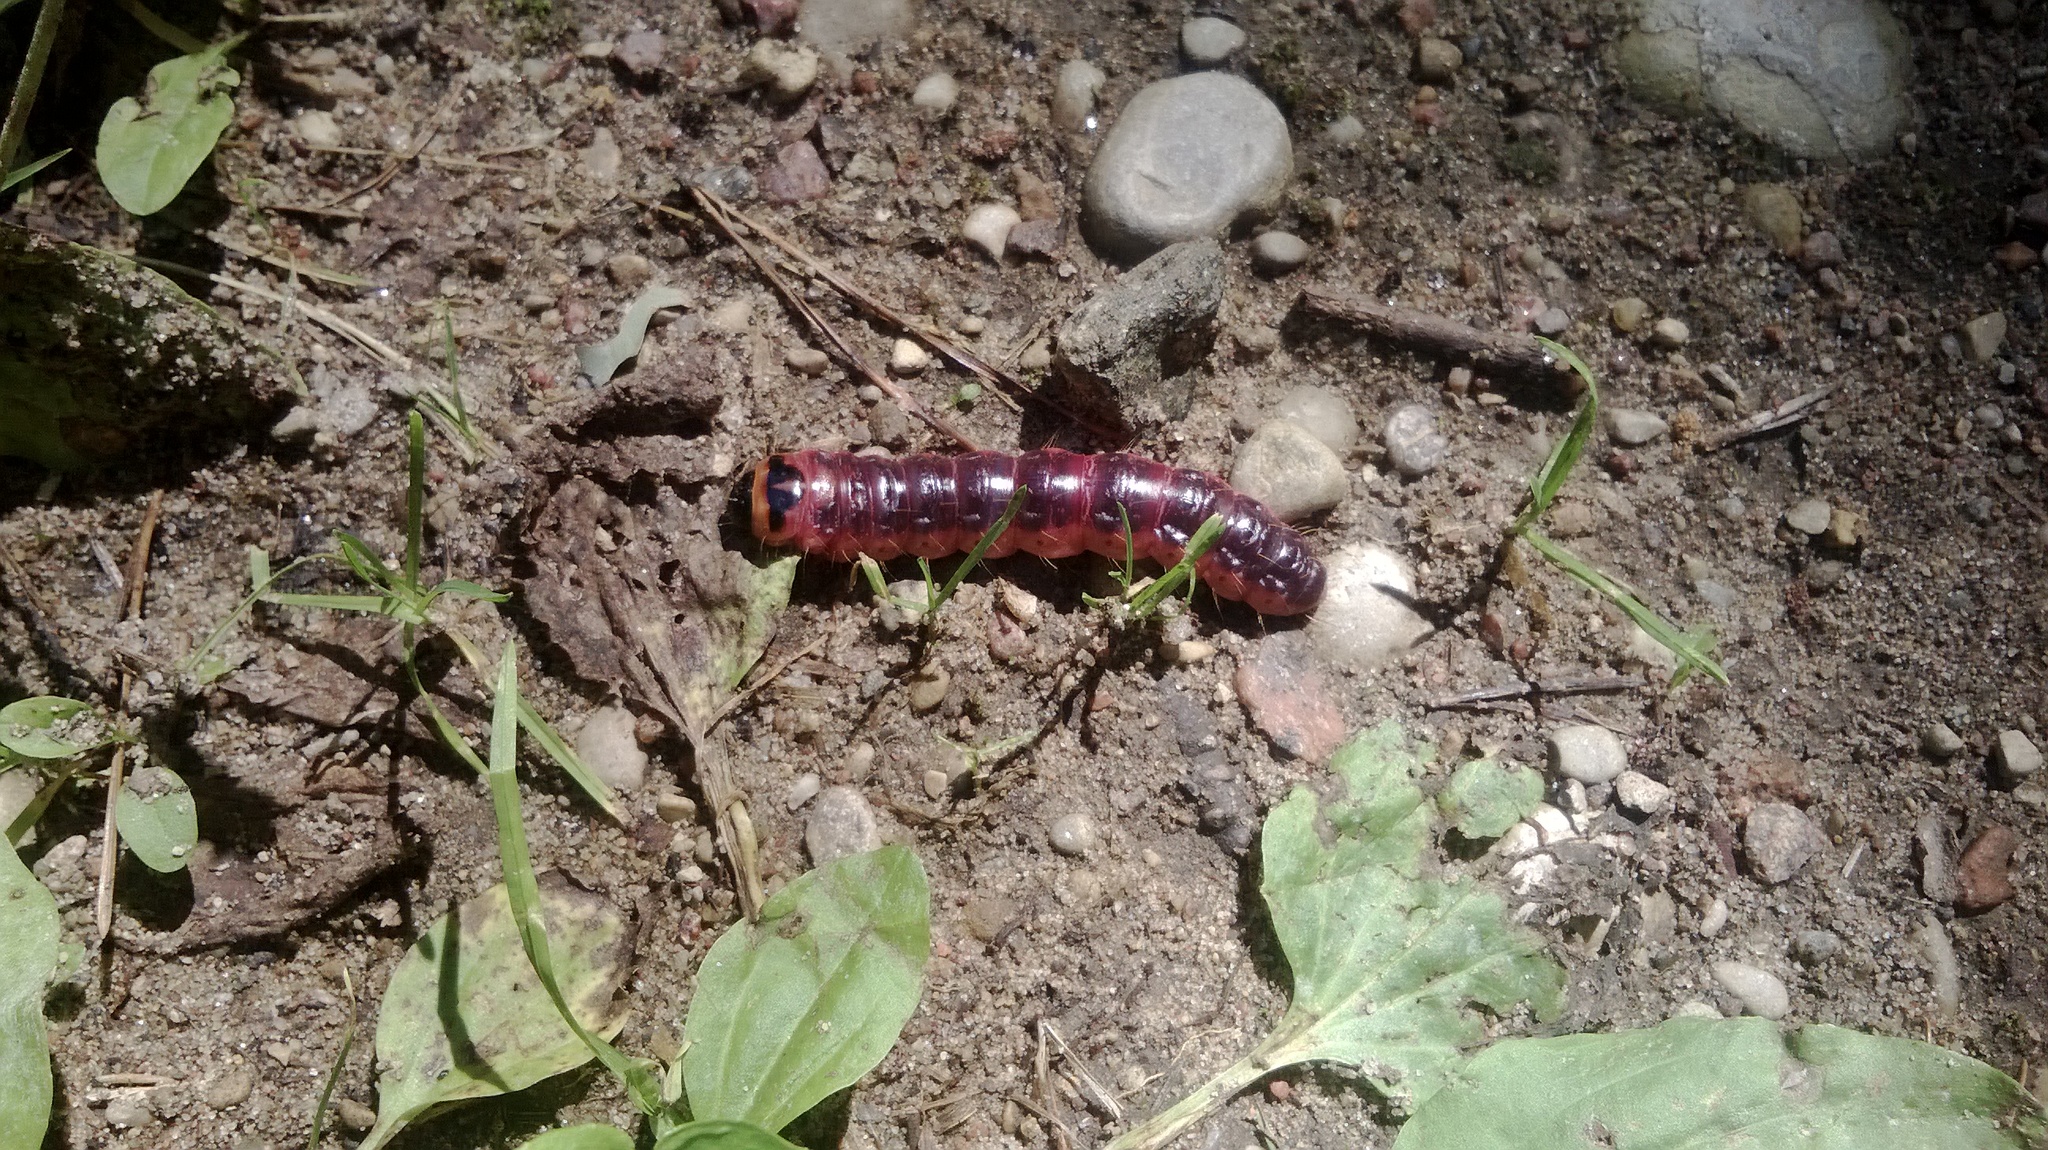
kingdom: Animalia
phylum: Arthropoda
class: Insecta
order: Lepidoptera
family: Cossidae
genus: Cossus
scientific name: Cossus cossus
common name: Goat moth
